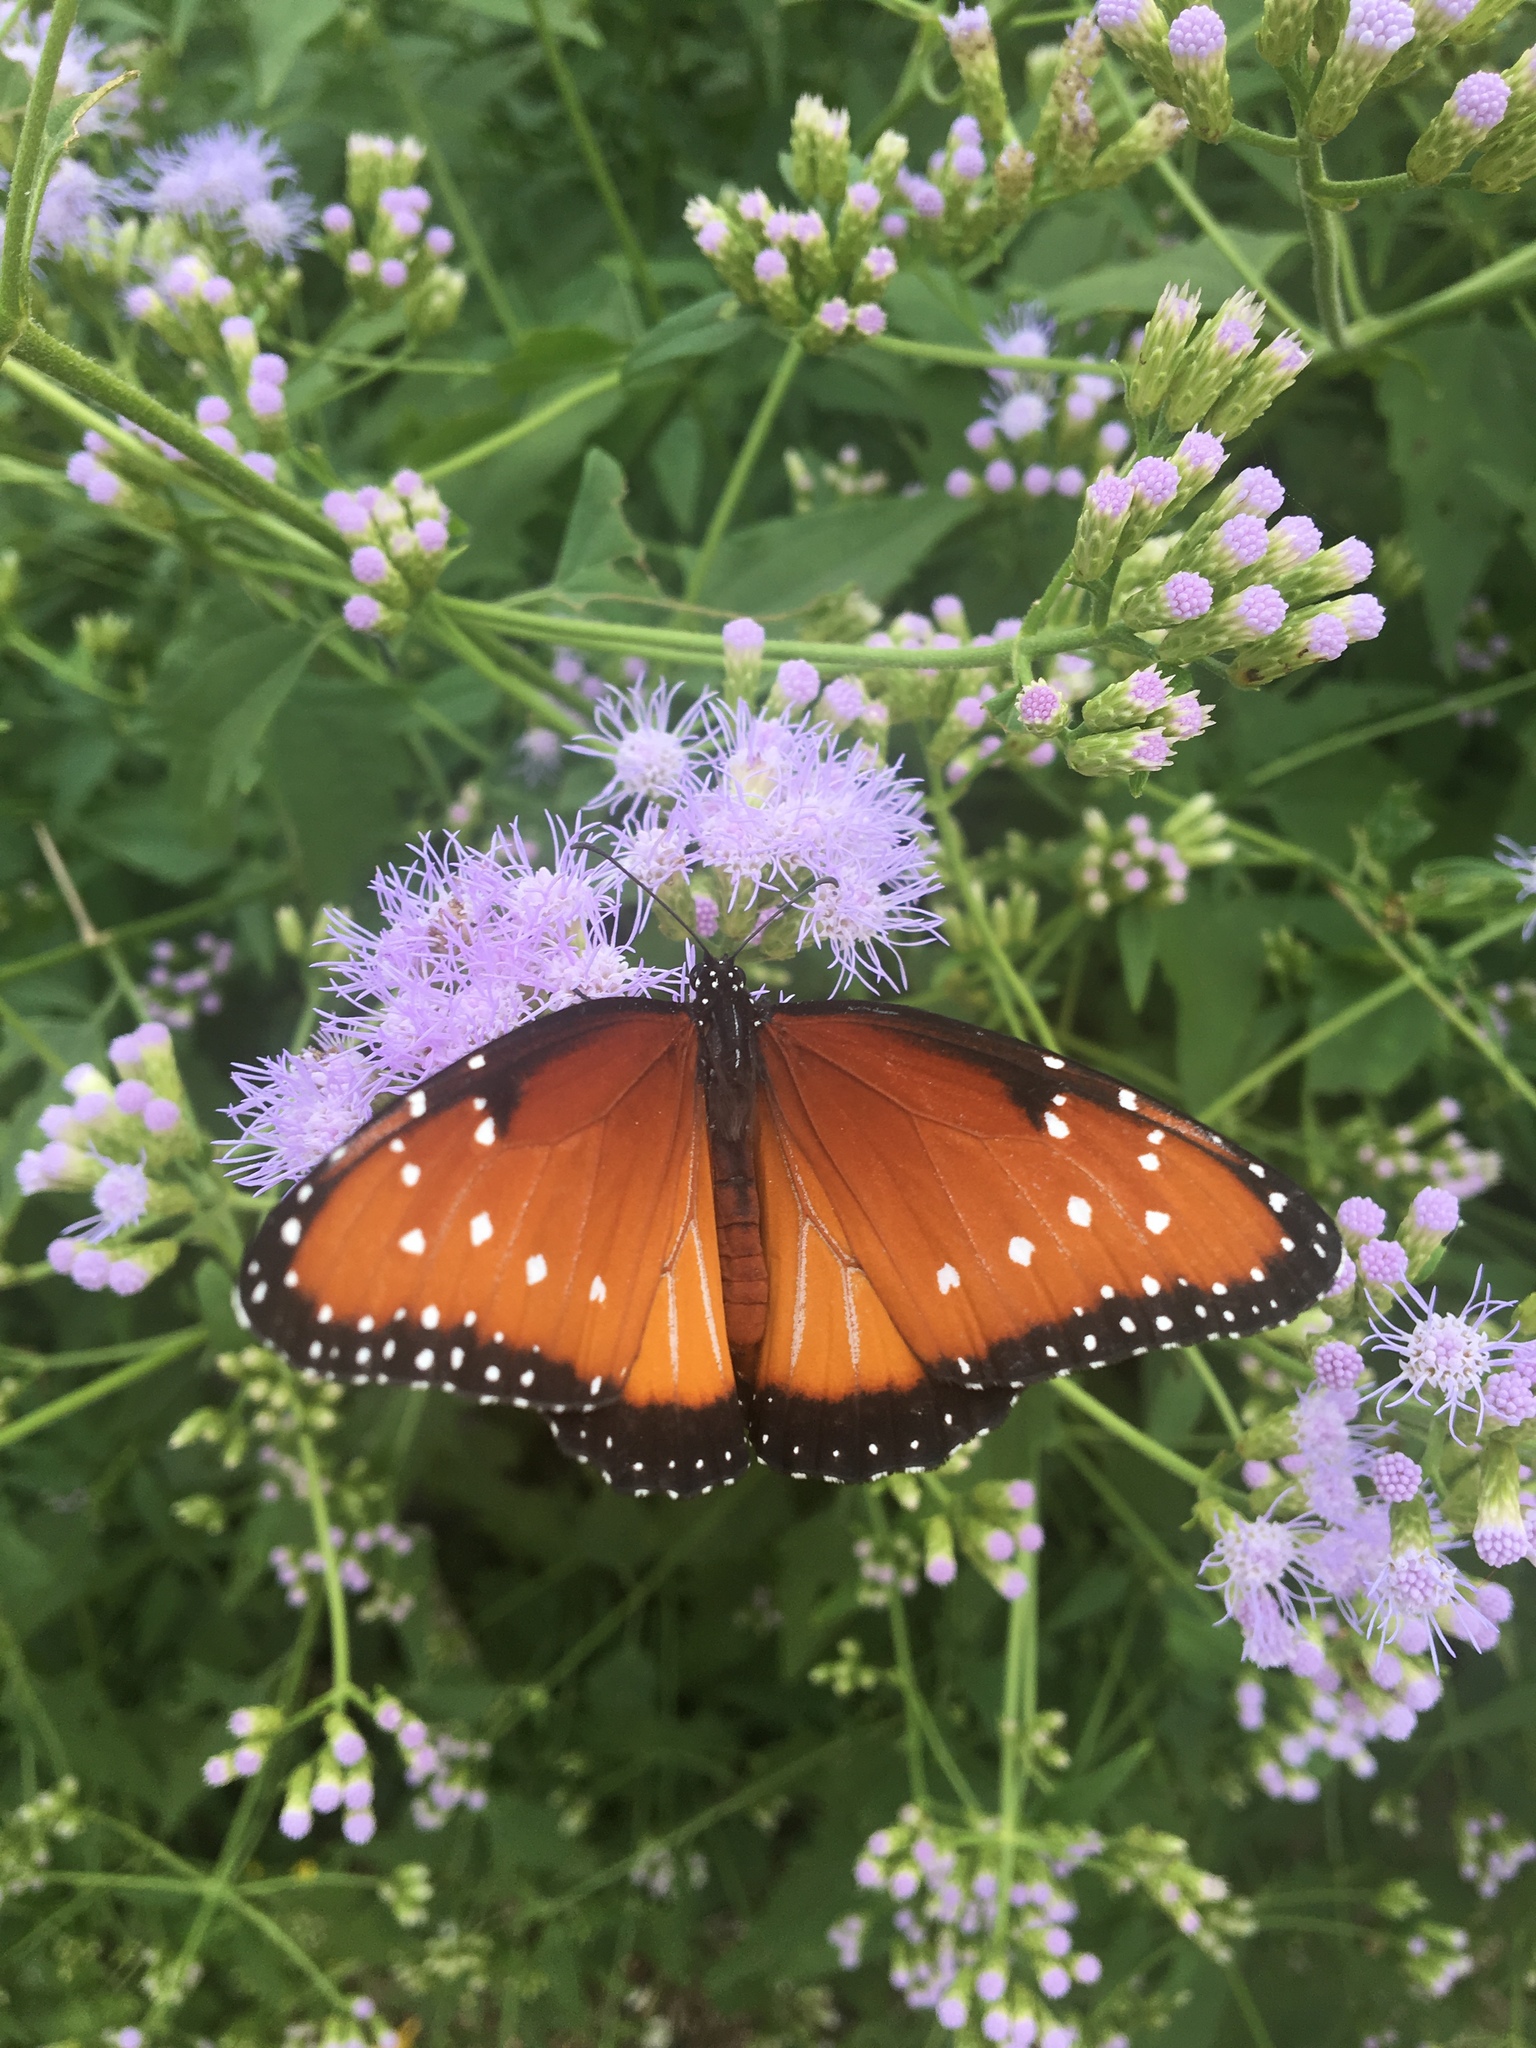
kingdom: Animalia
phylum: Arthropoda
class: Insecta
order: Lepidoptera
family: Nymphalidae
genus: Danaus
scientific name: Danaus gilippus
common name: Queen
